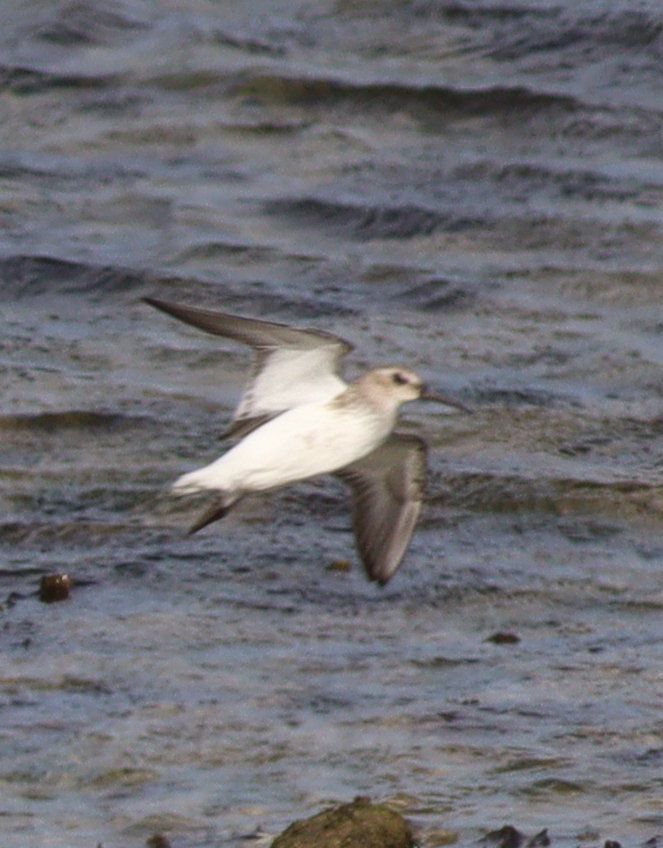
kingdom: Animalia
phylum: Chordata
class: Aves
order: Charadriiformes
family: Scolopacidae
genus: Calidris
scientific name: Calidris alpina
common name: Dunlin
